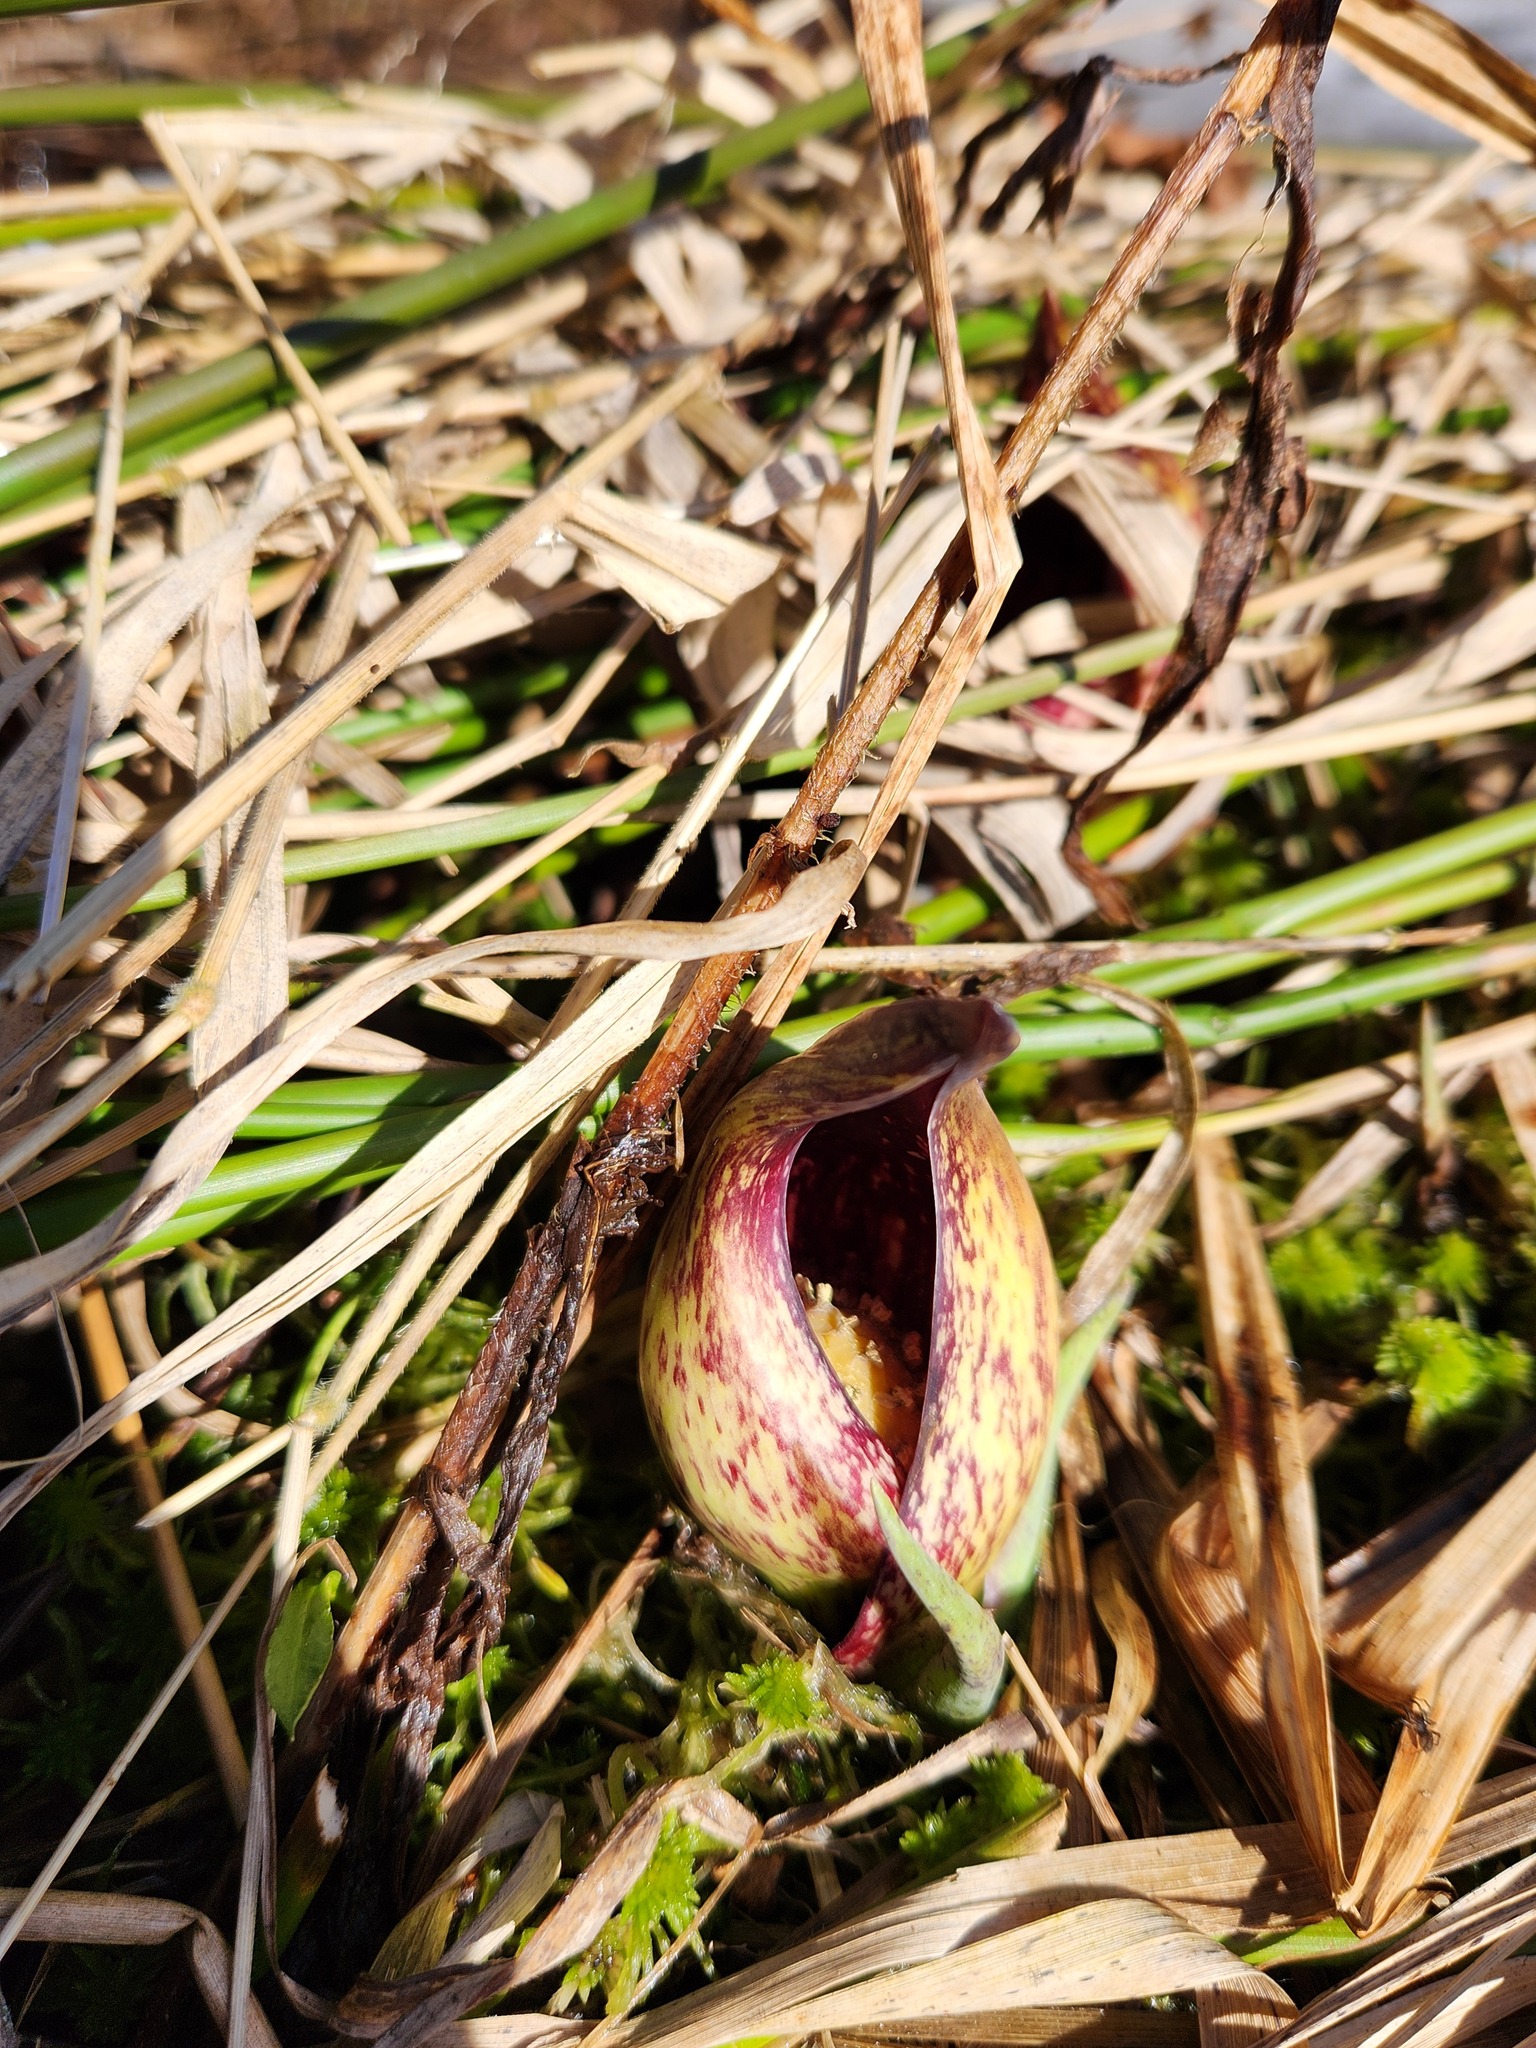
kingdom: Plantae
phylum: Tracheophyta
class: Liliopsida
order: Alismatales
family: Araceae
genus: Symplocarpus
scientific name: Symplocarpus foetidus
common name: Eastern skunk cabbage
